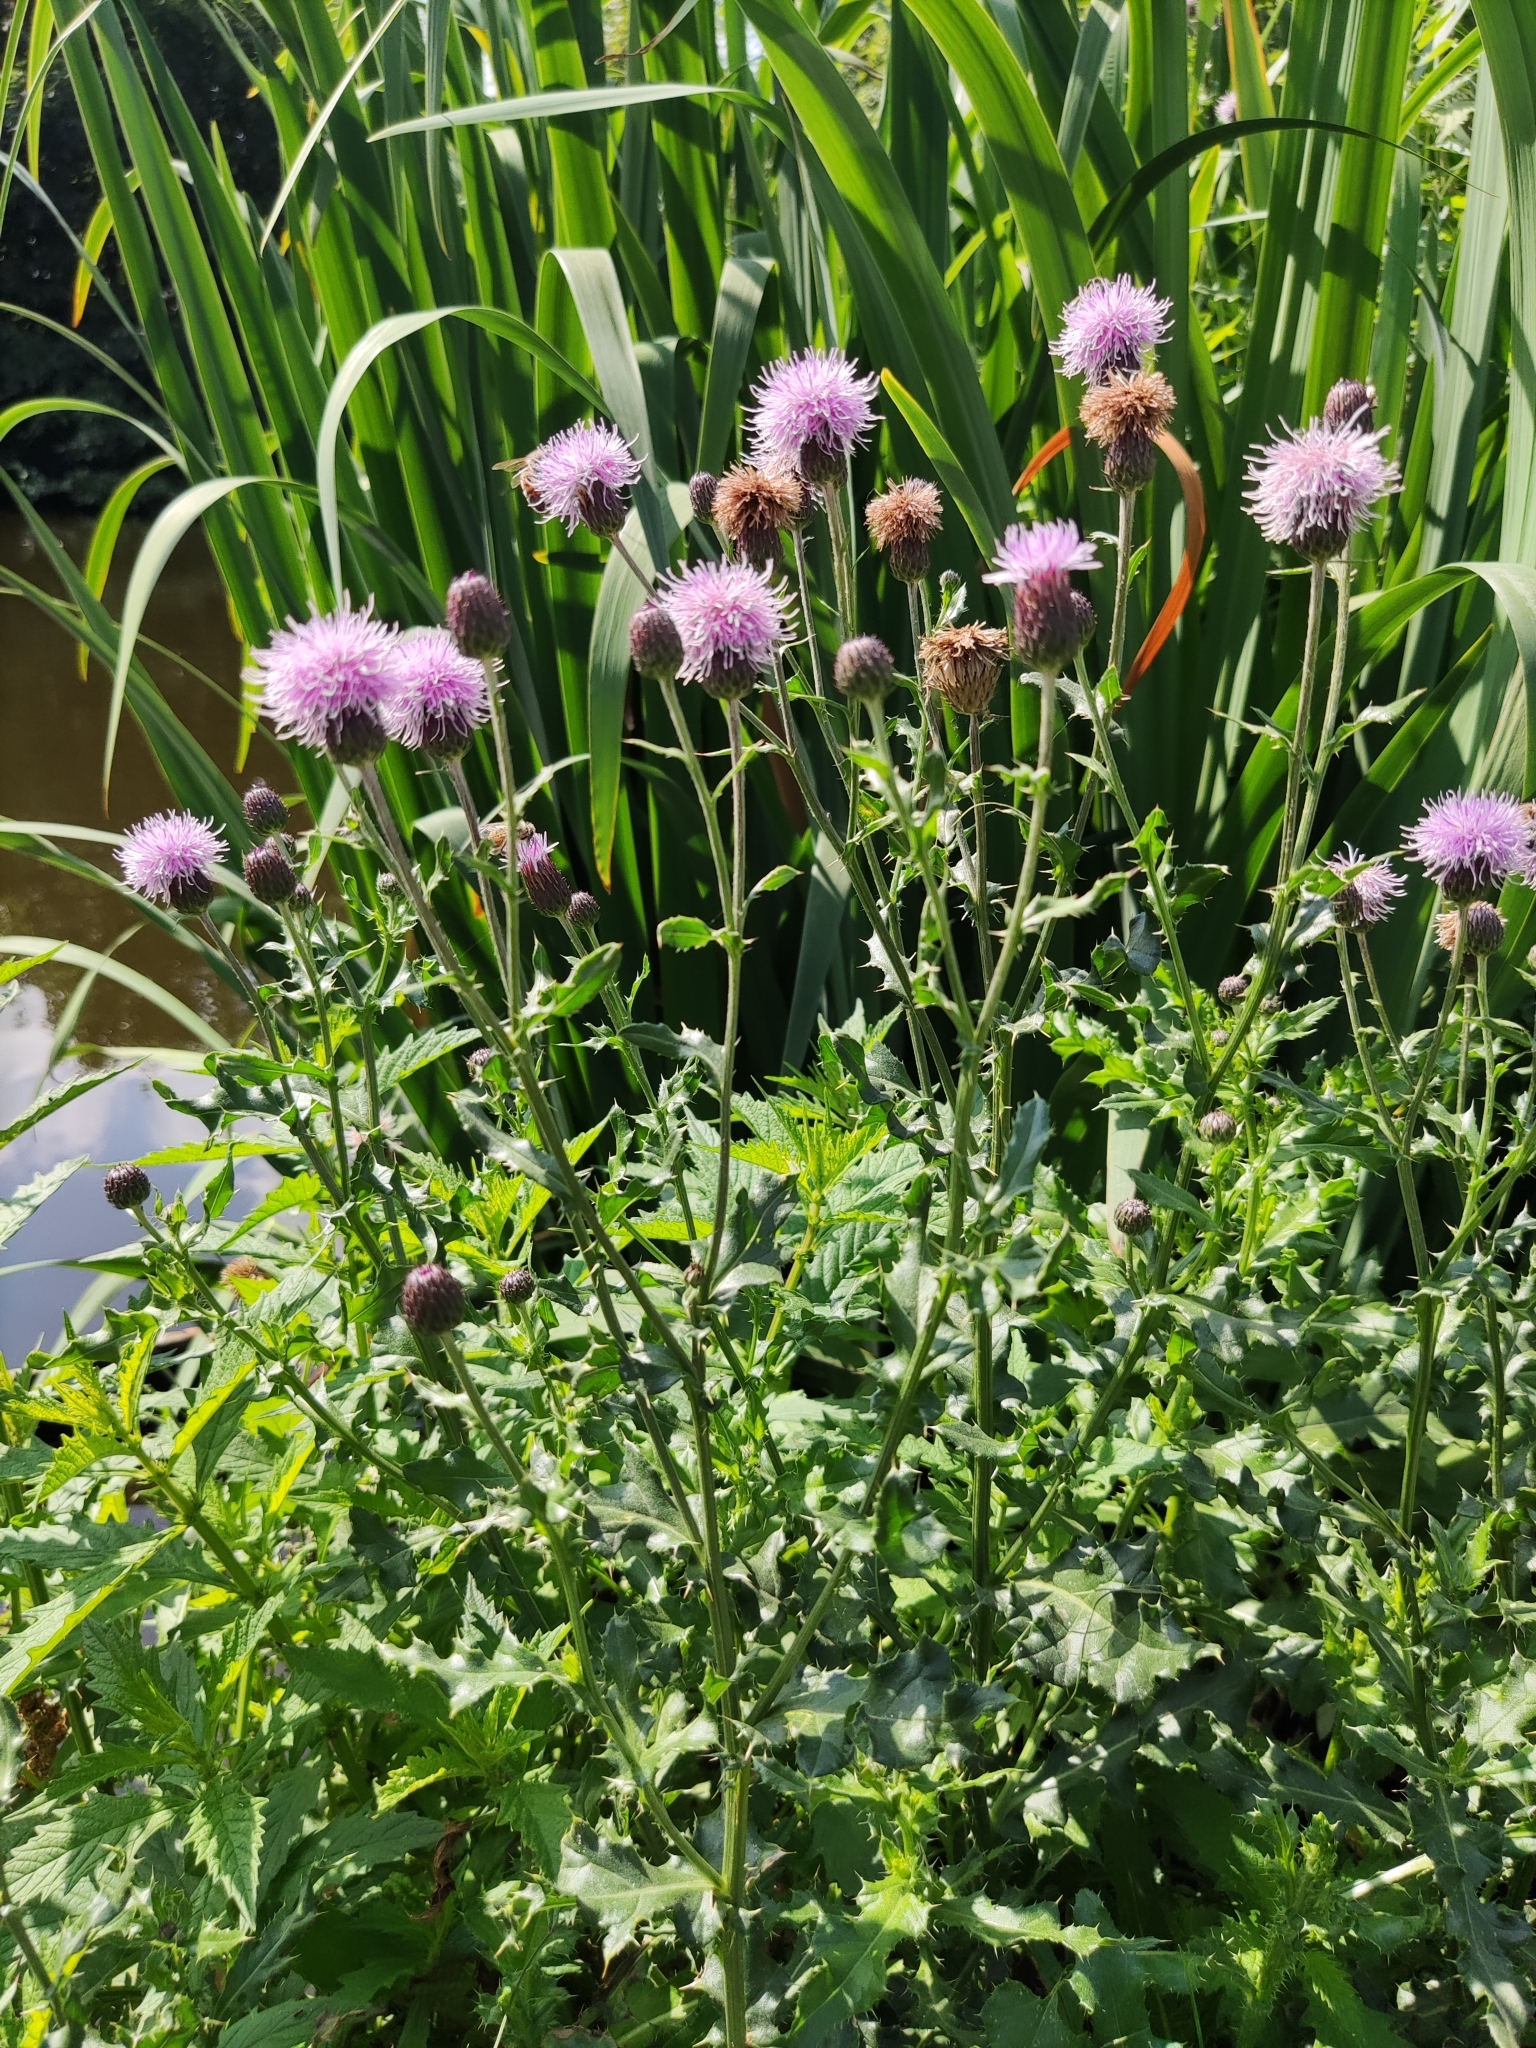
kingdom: Plantae
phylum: Tracheophyta
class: Magnoliopsida
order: Asterales
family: Asteraceae
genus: Cirsium
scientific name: Cirsium arvense
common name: Creeping thistle
